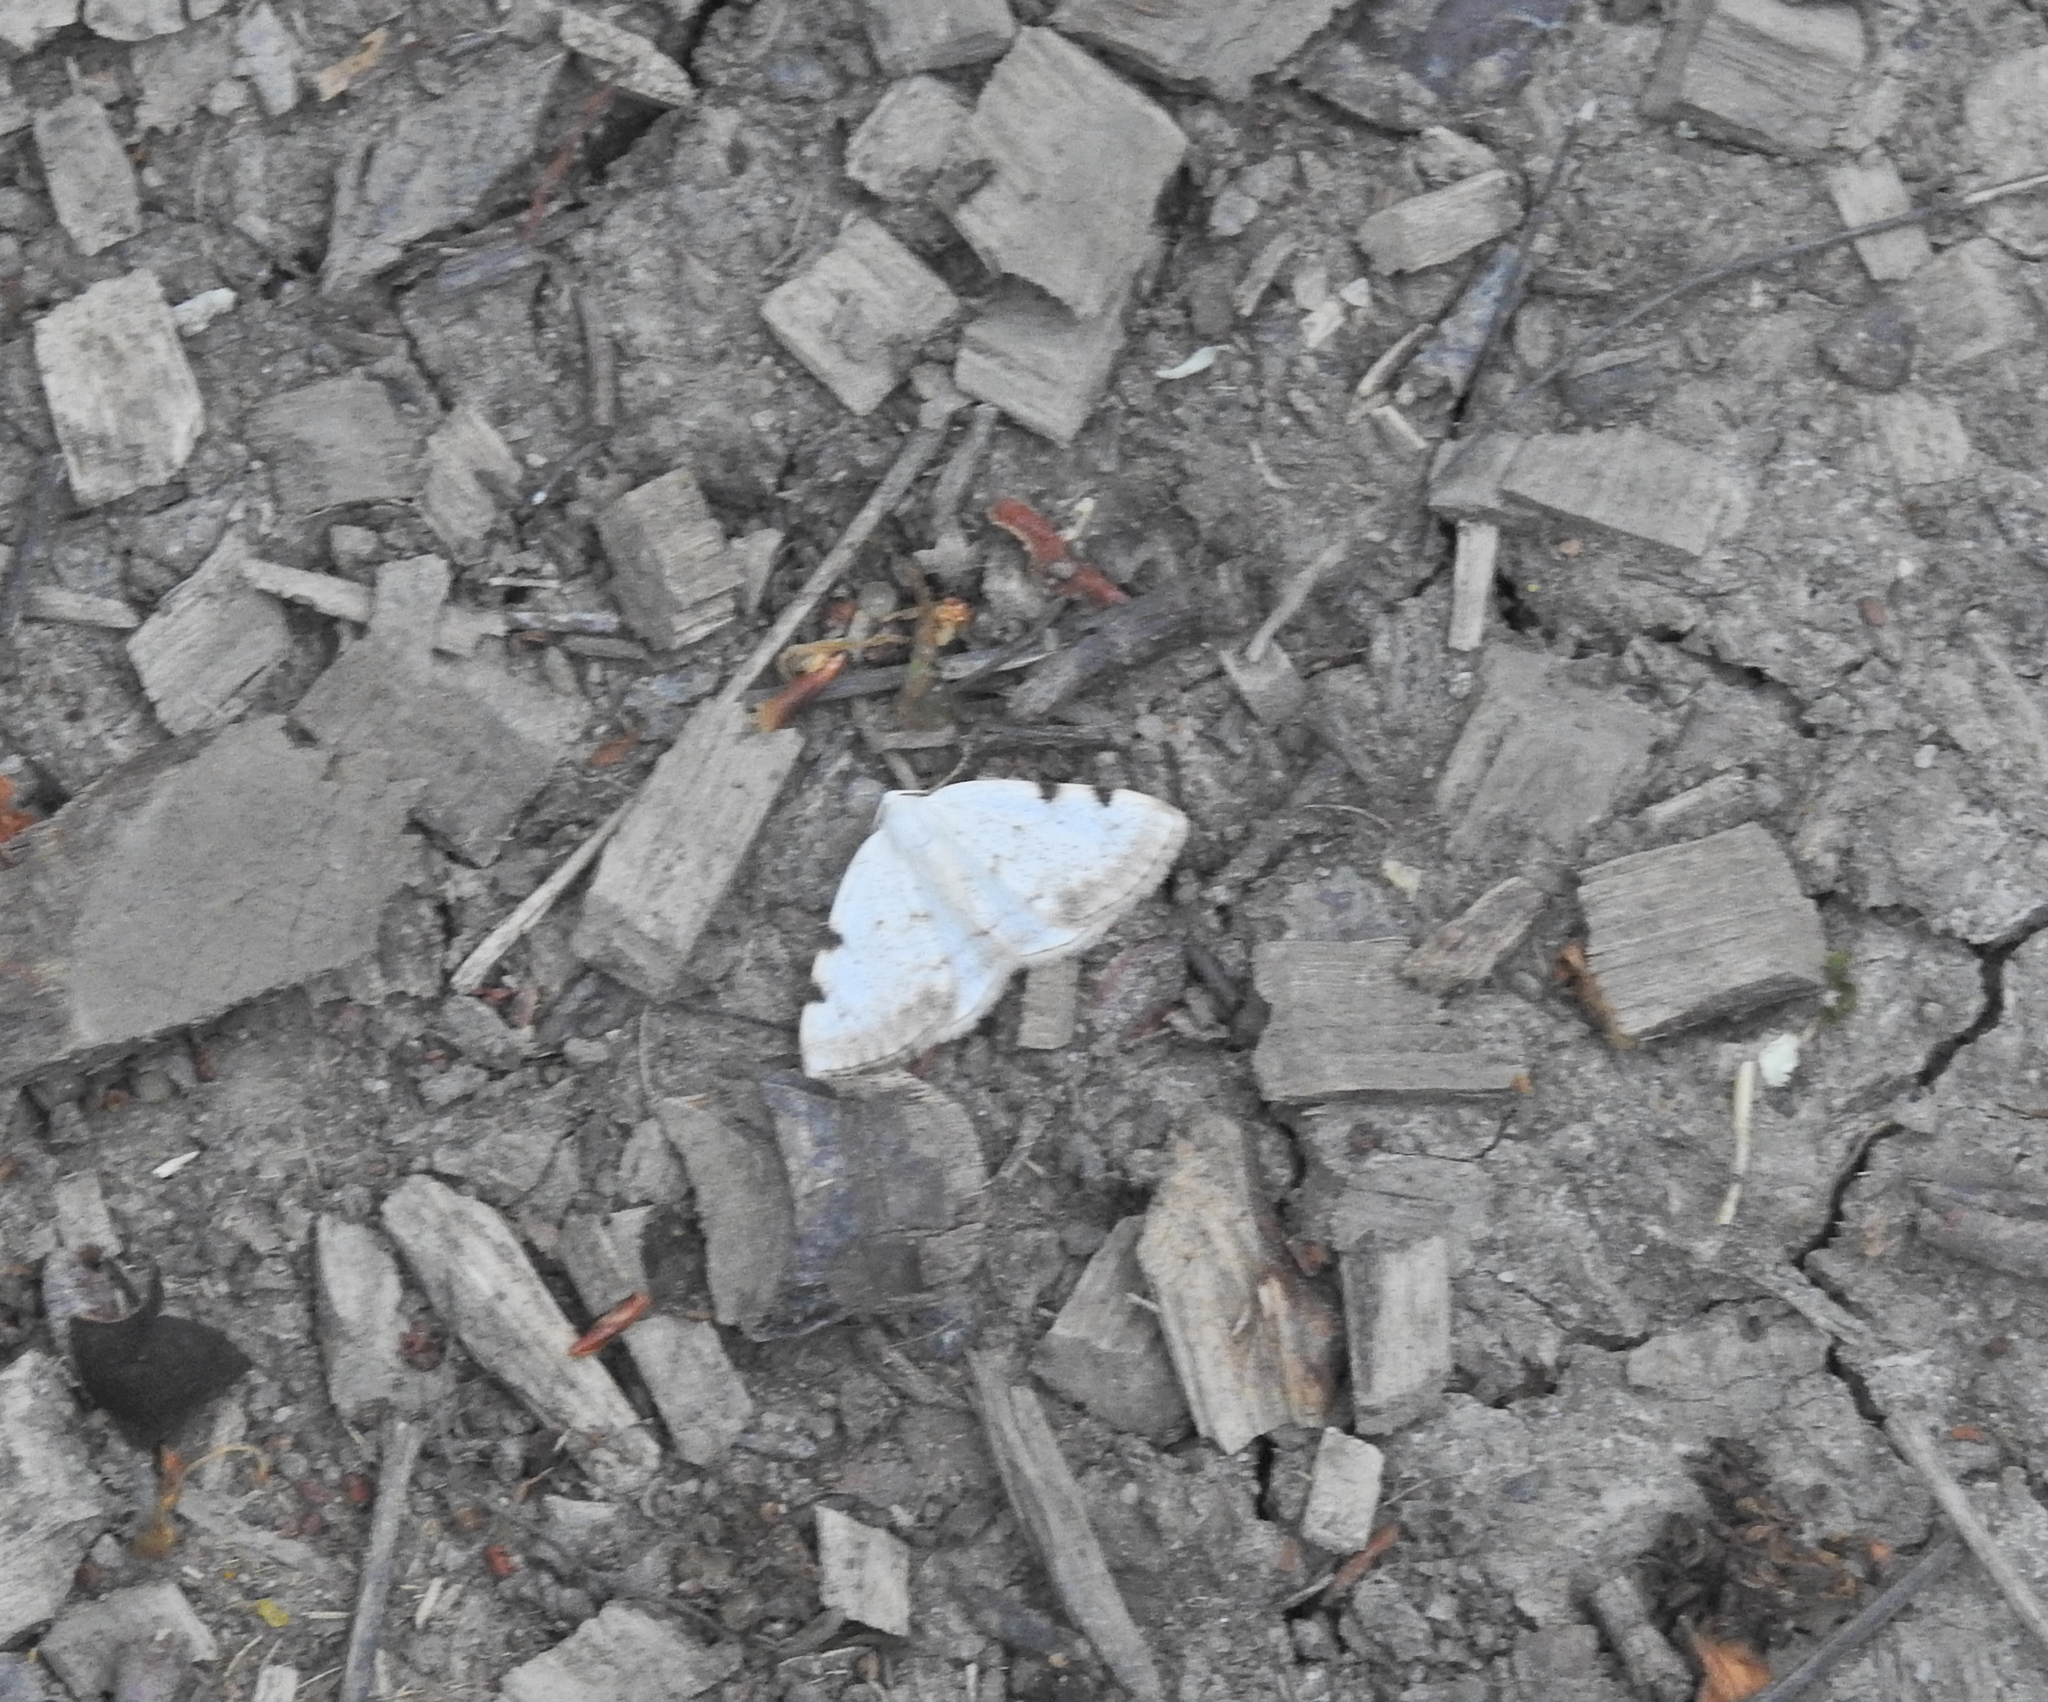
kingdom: Animalia
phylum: Arthropoda
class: Insecta
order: Lepidoptera
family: Geometridae
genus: Lomographa
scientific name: Lomographa bimaculata
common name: White-pinion spotted
